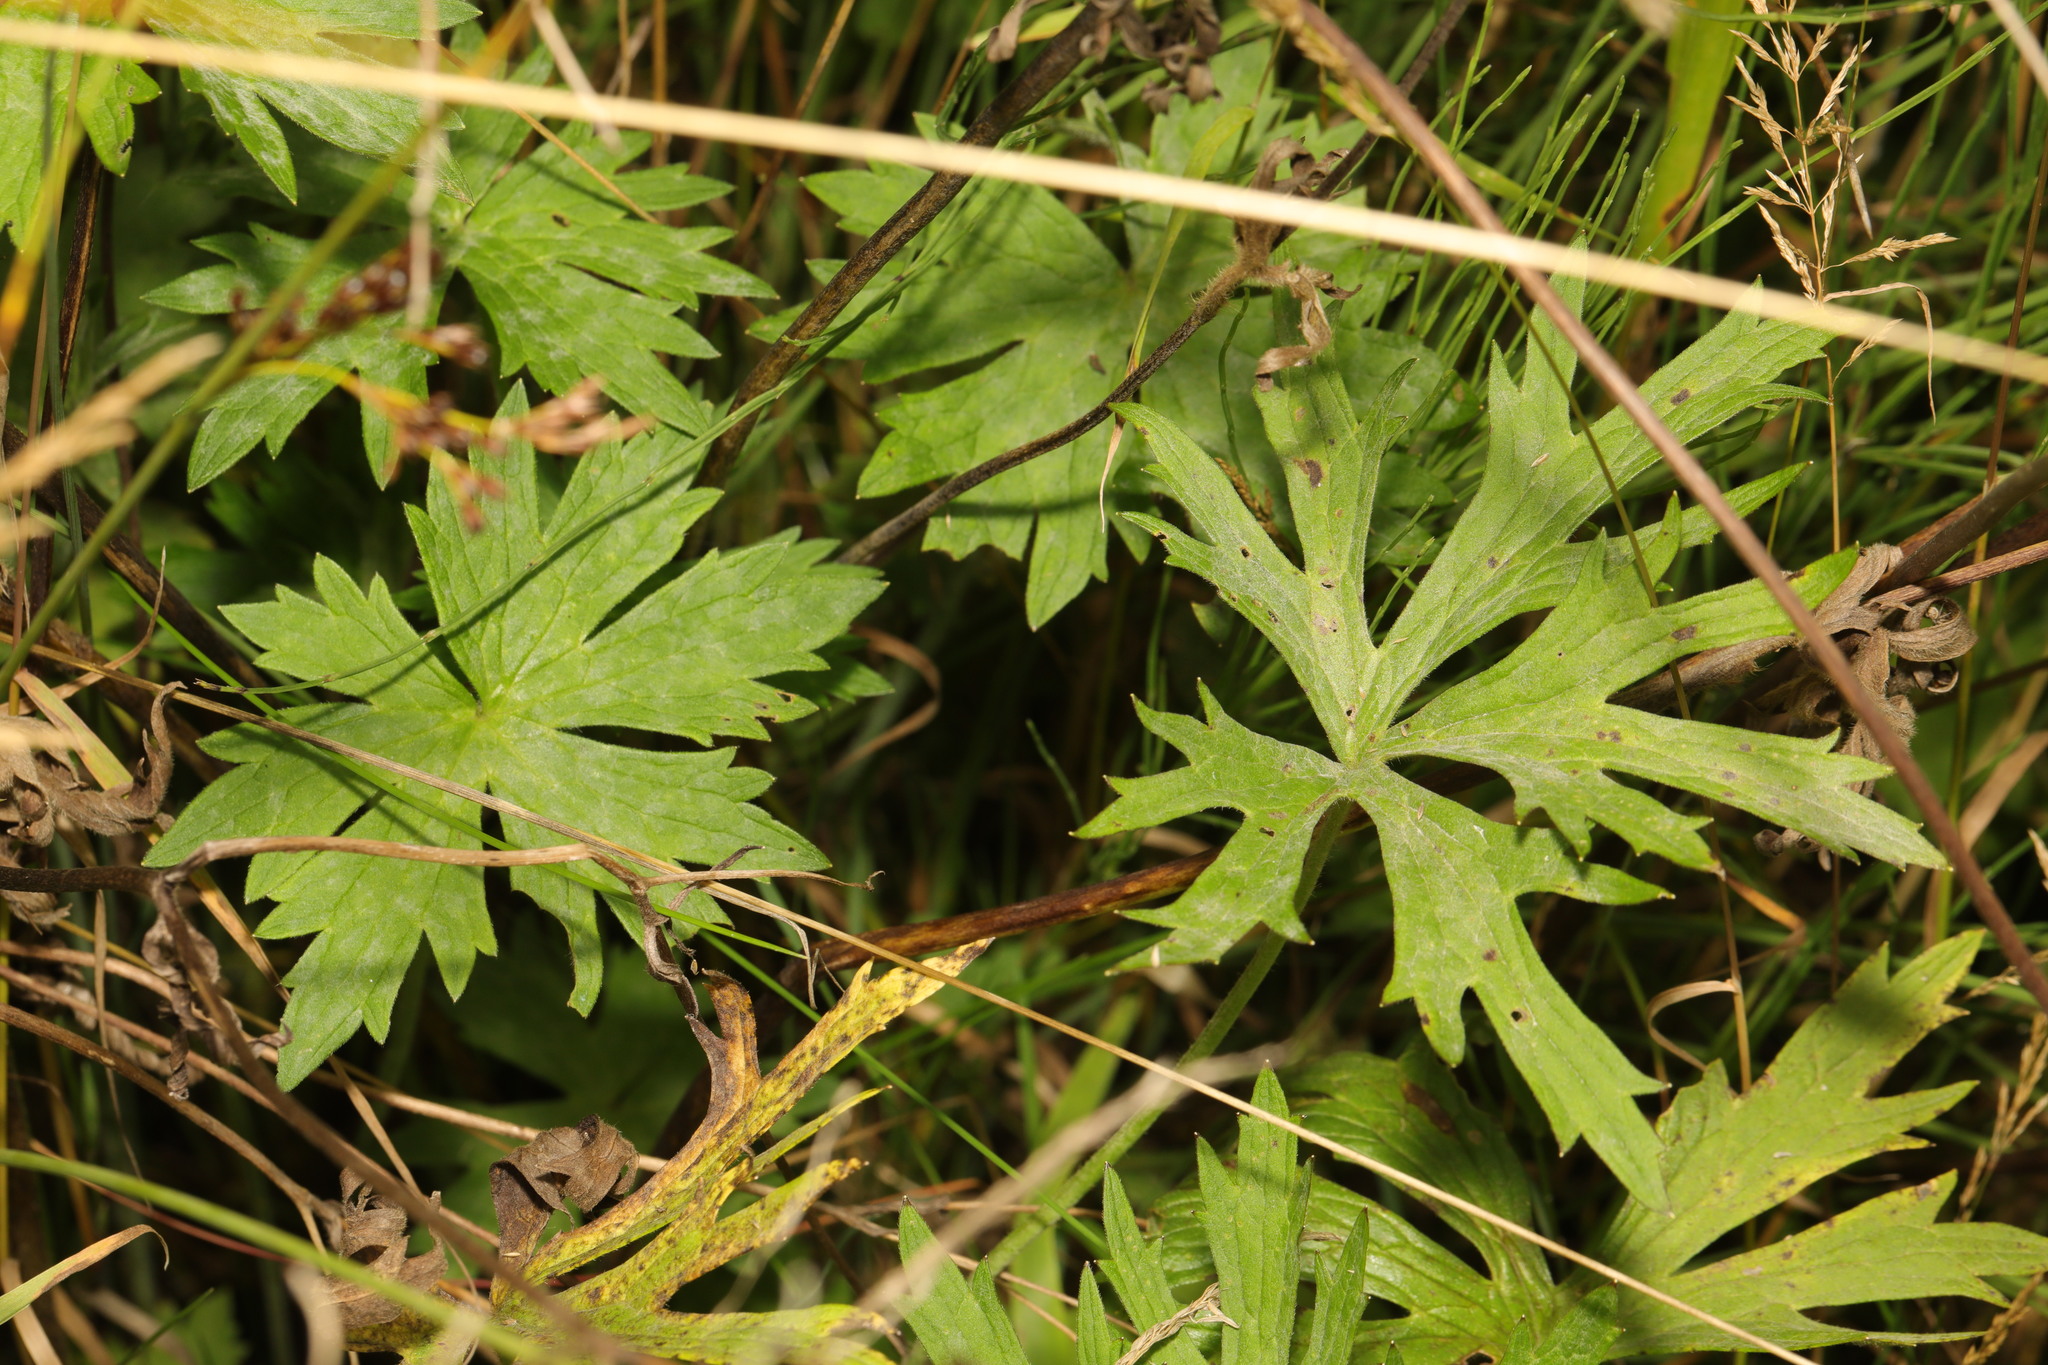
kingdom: Plantae
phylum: Tracheophyta
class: Magnoliopsida
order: Ranunculales
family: Ranunculaceae
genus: Ranunculus
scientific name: Ranunculus acris
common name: Meadow buttercup
